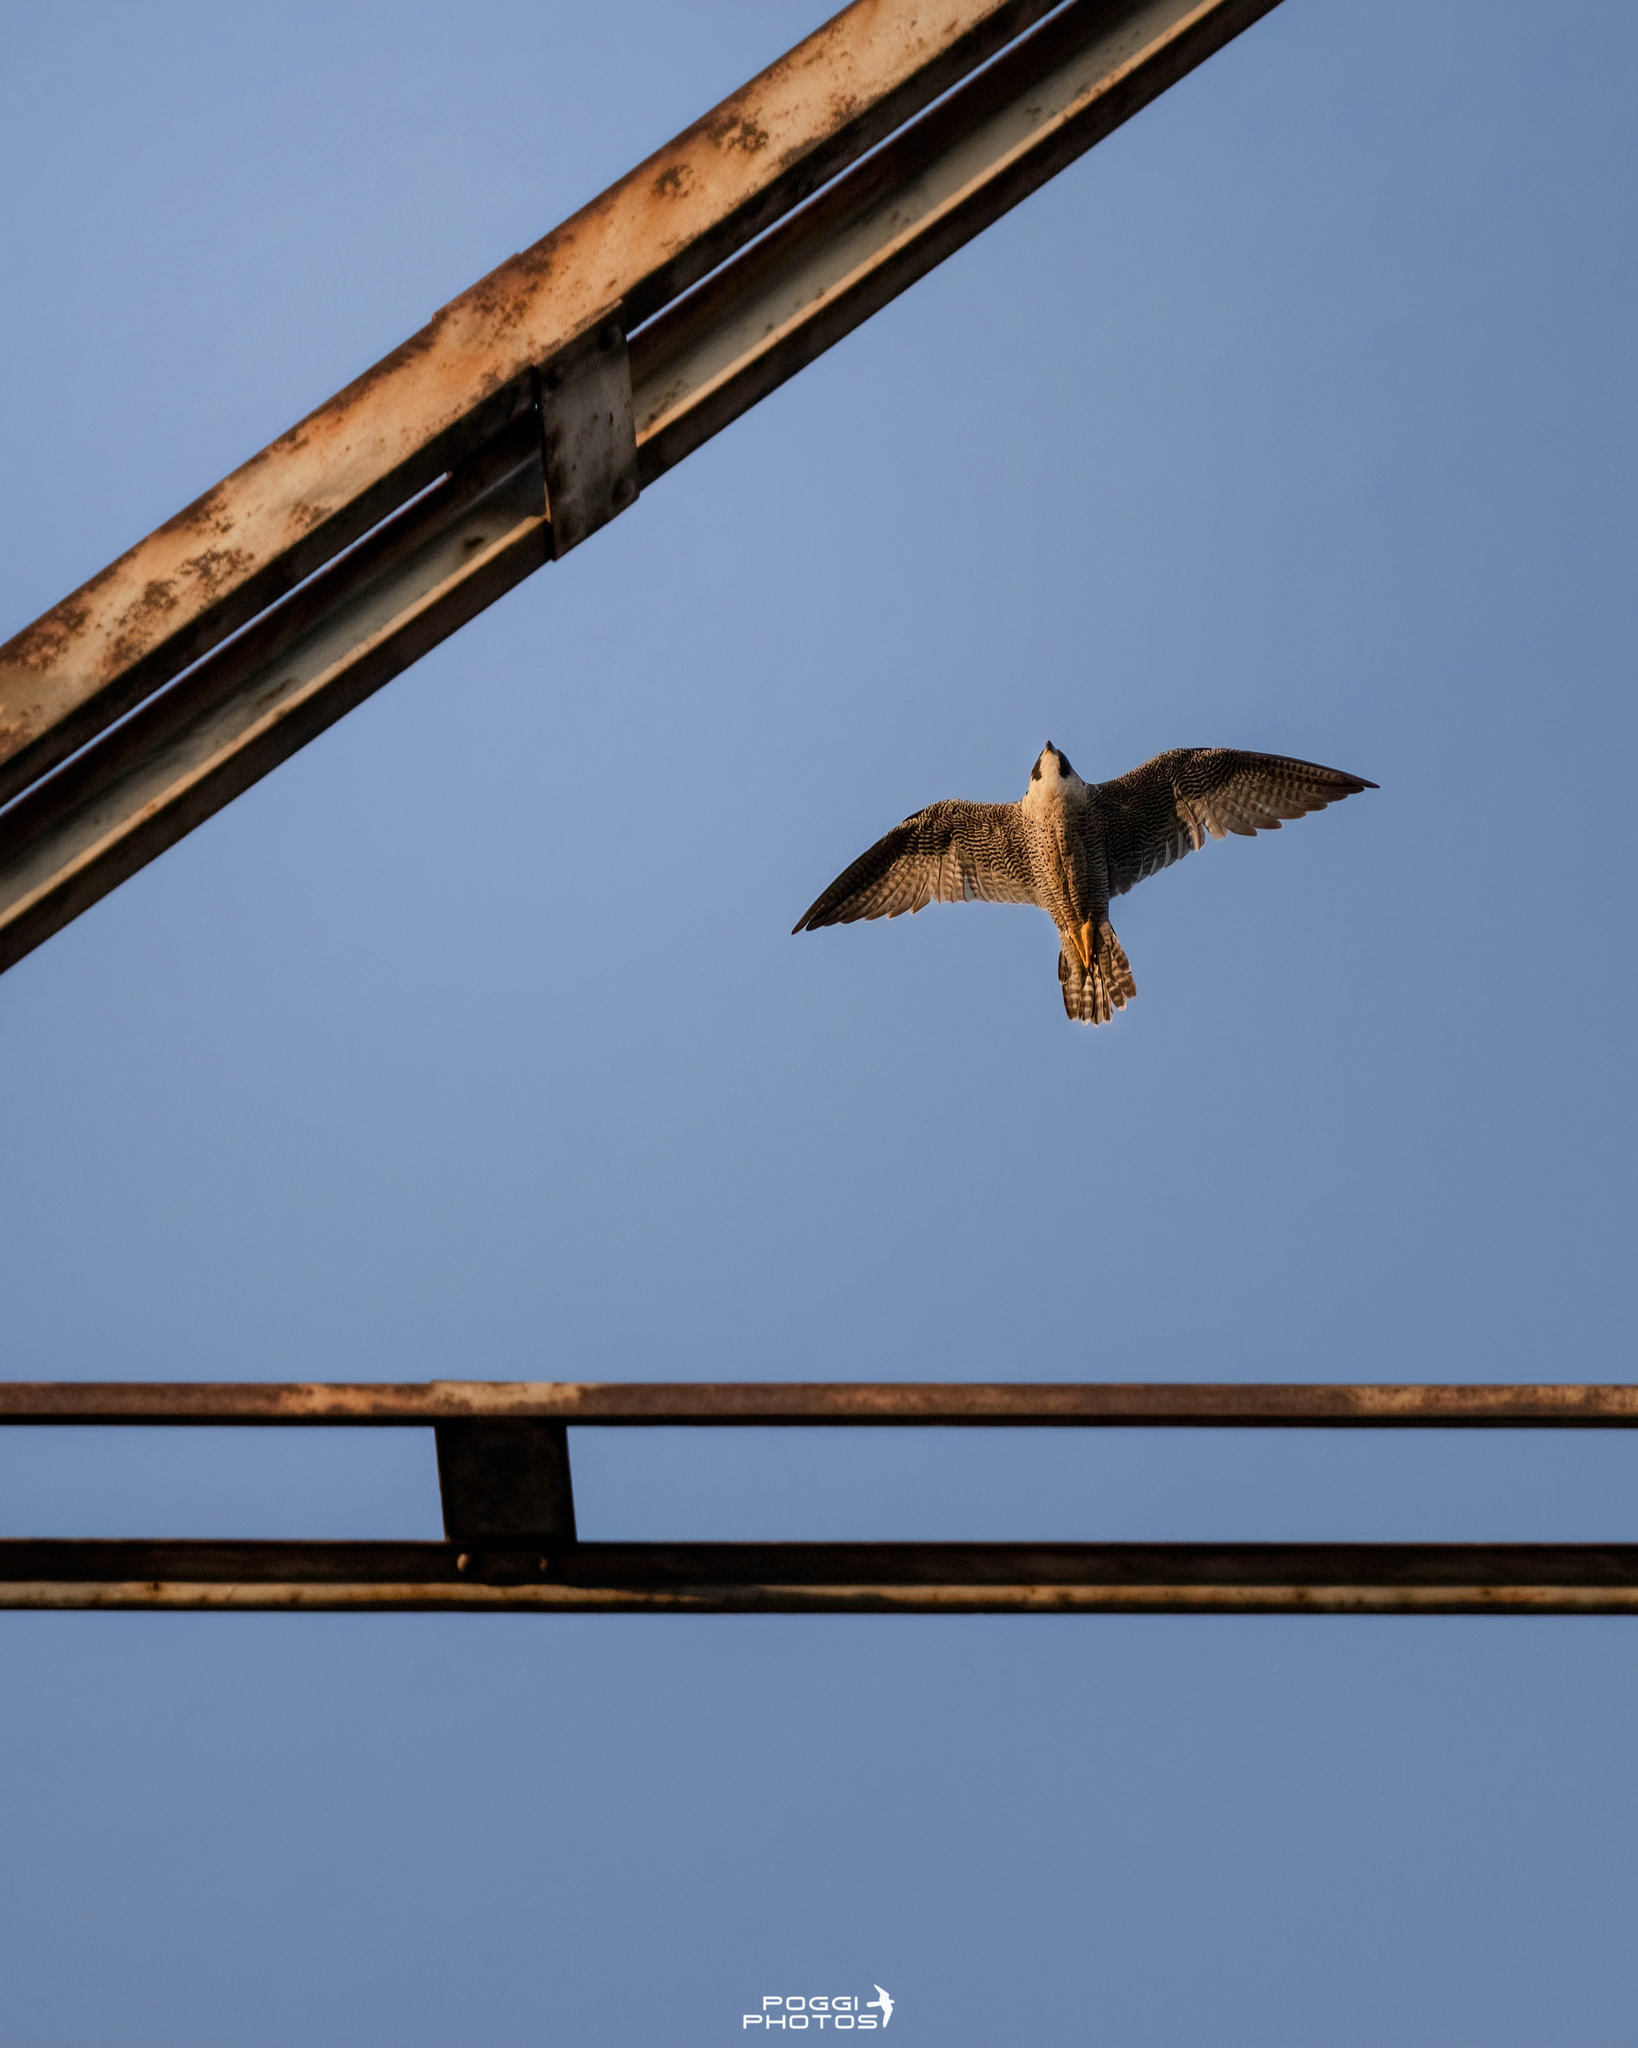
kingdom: Animalia
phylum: Chordata
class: Aves
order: Falconiformes
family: Falconidae
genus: Falco
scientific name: Falco peregrinus
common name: Peregrine falcon
